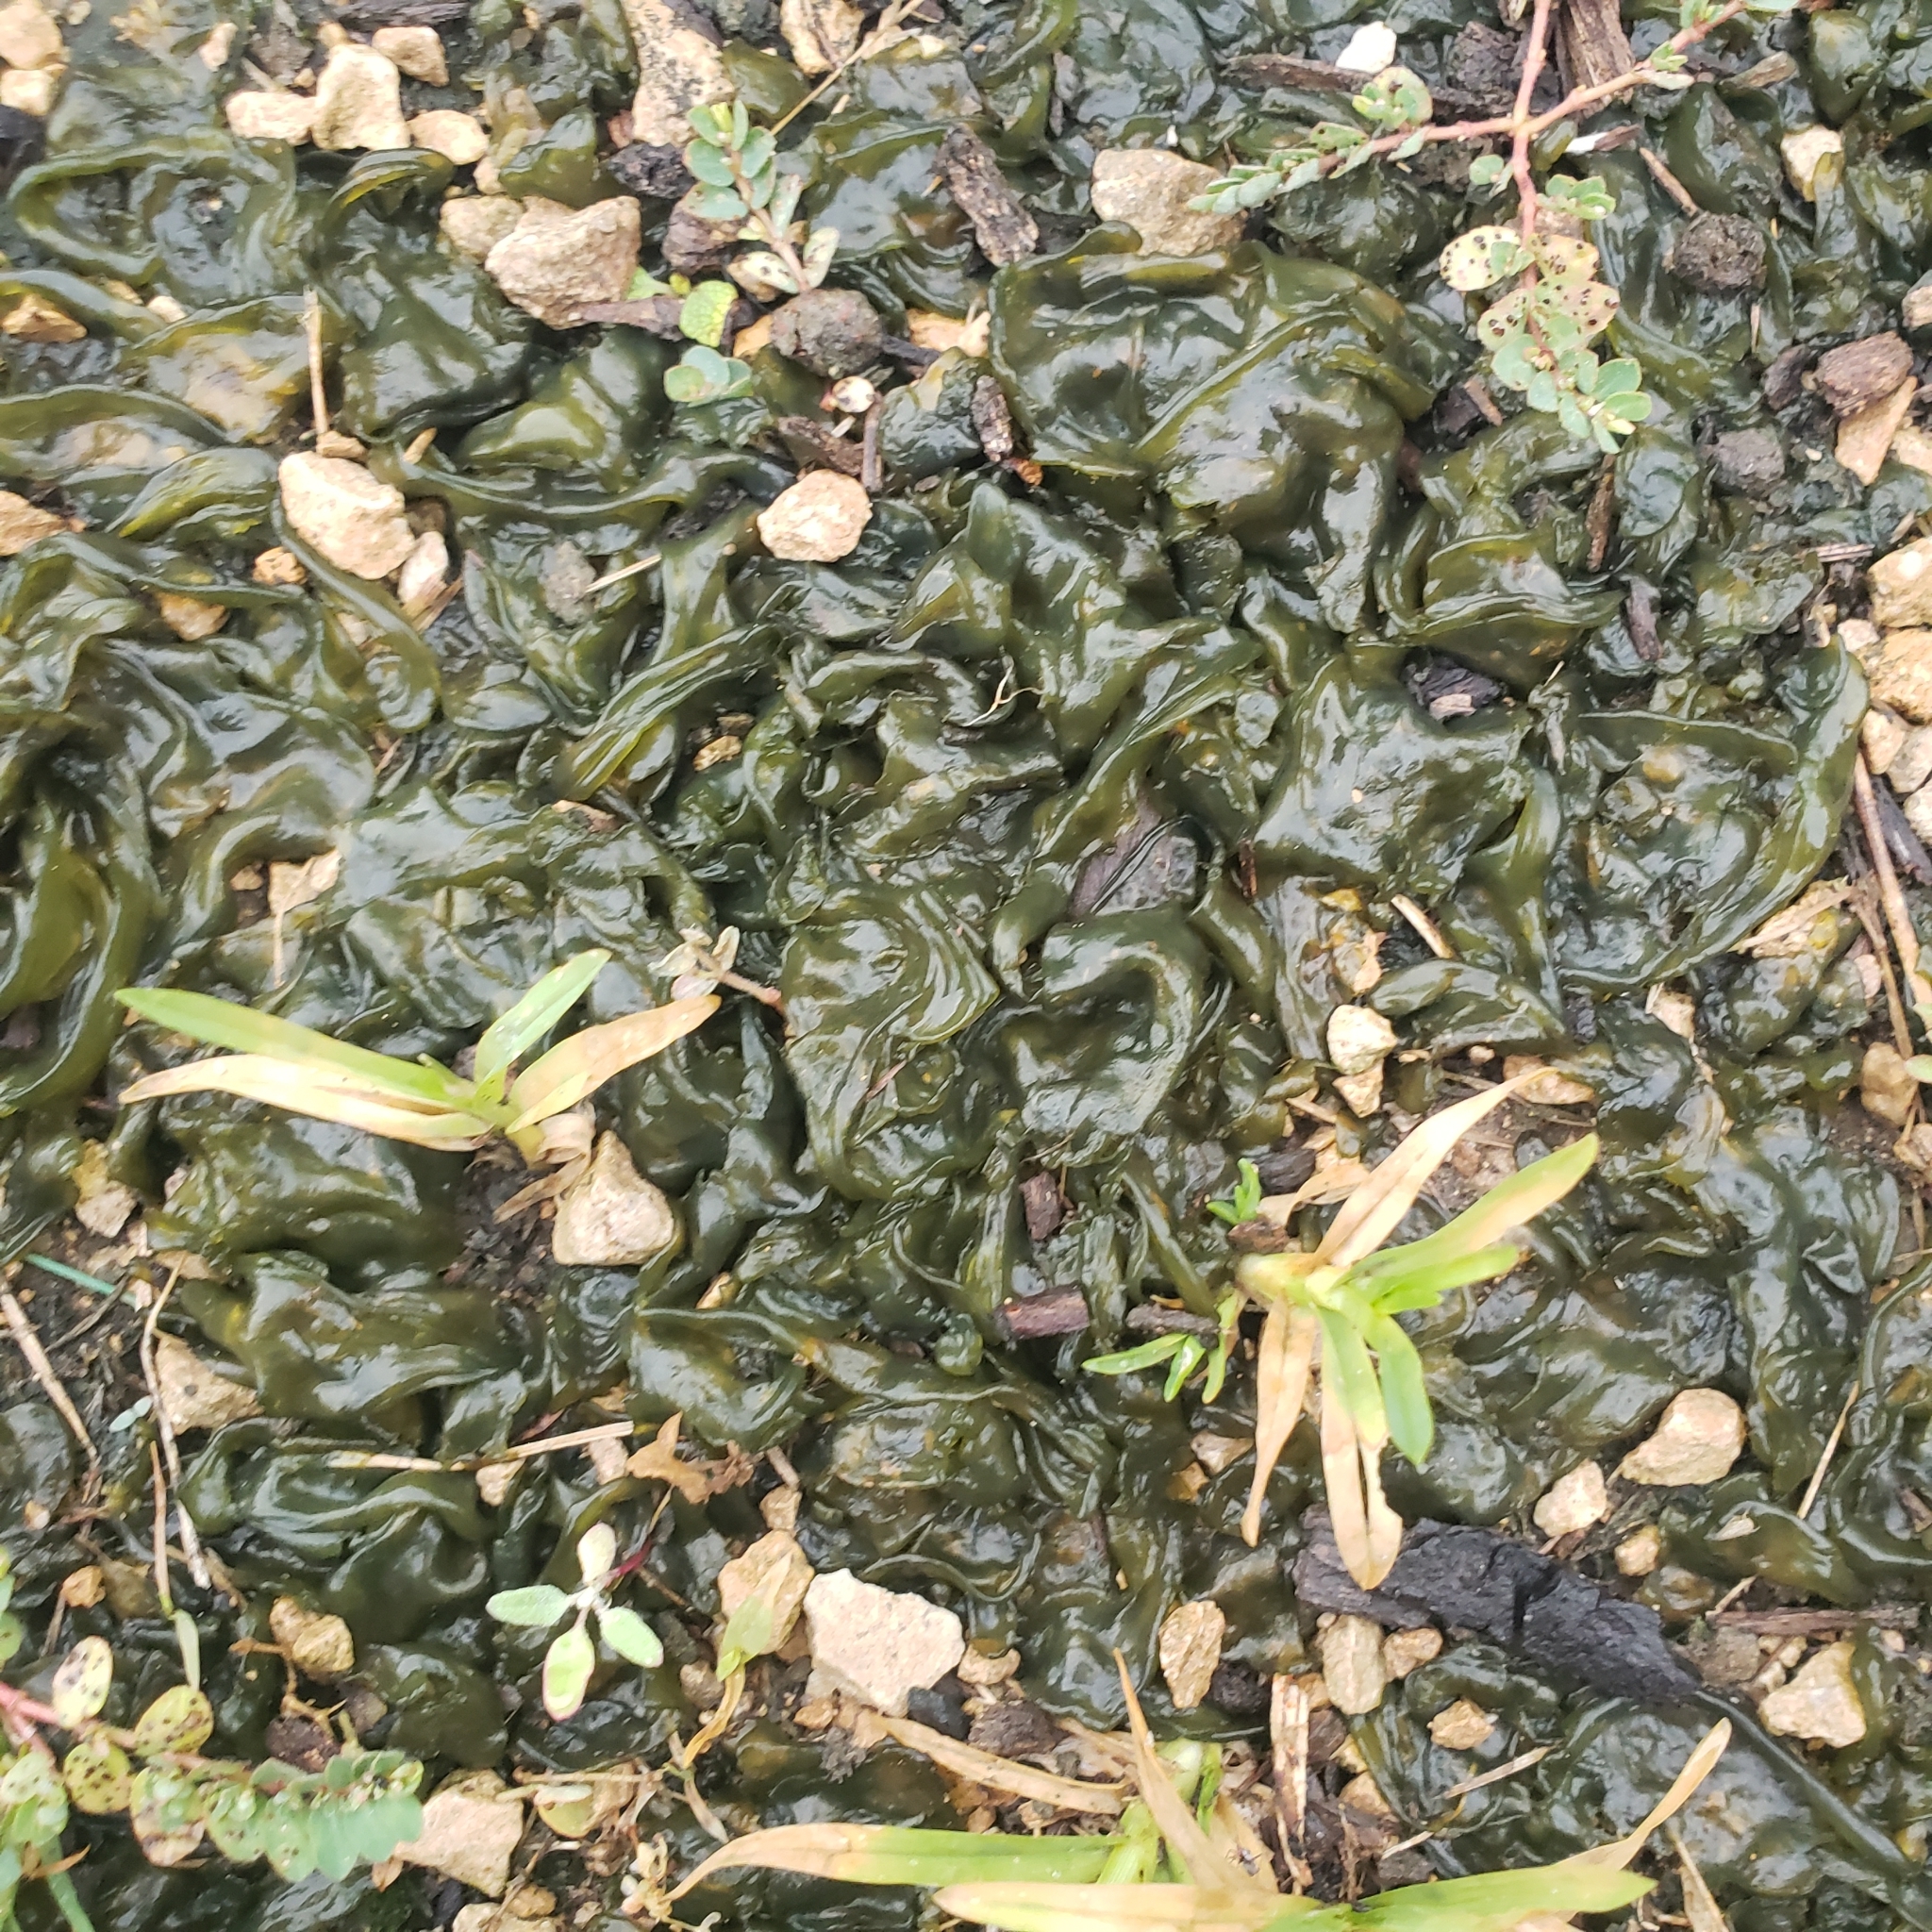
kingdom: Bacteria
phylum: Cyanobacteria
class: Cyanobacteriia
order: Cyanobacteriales
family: Nostocaceae
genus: Nostoc
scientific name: Nostoc commune
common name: Star jelly
